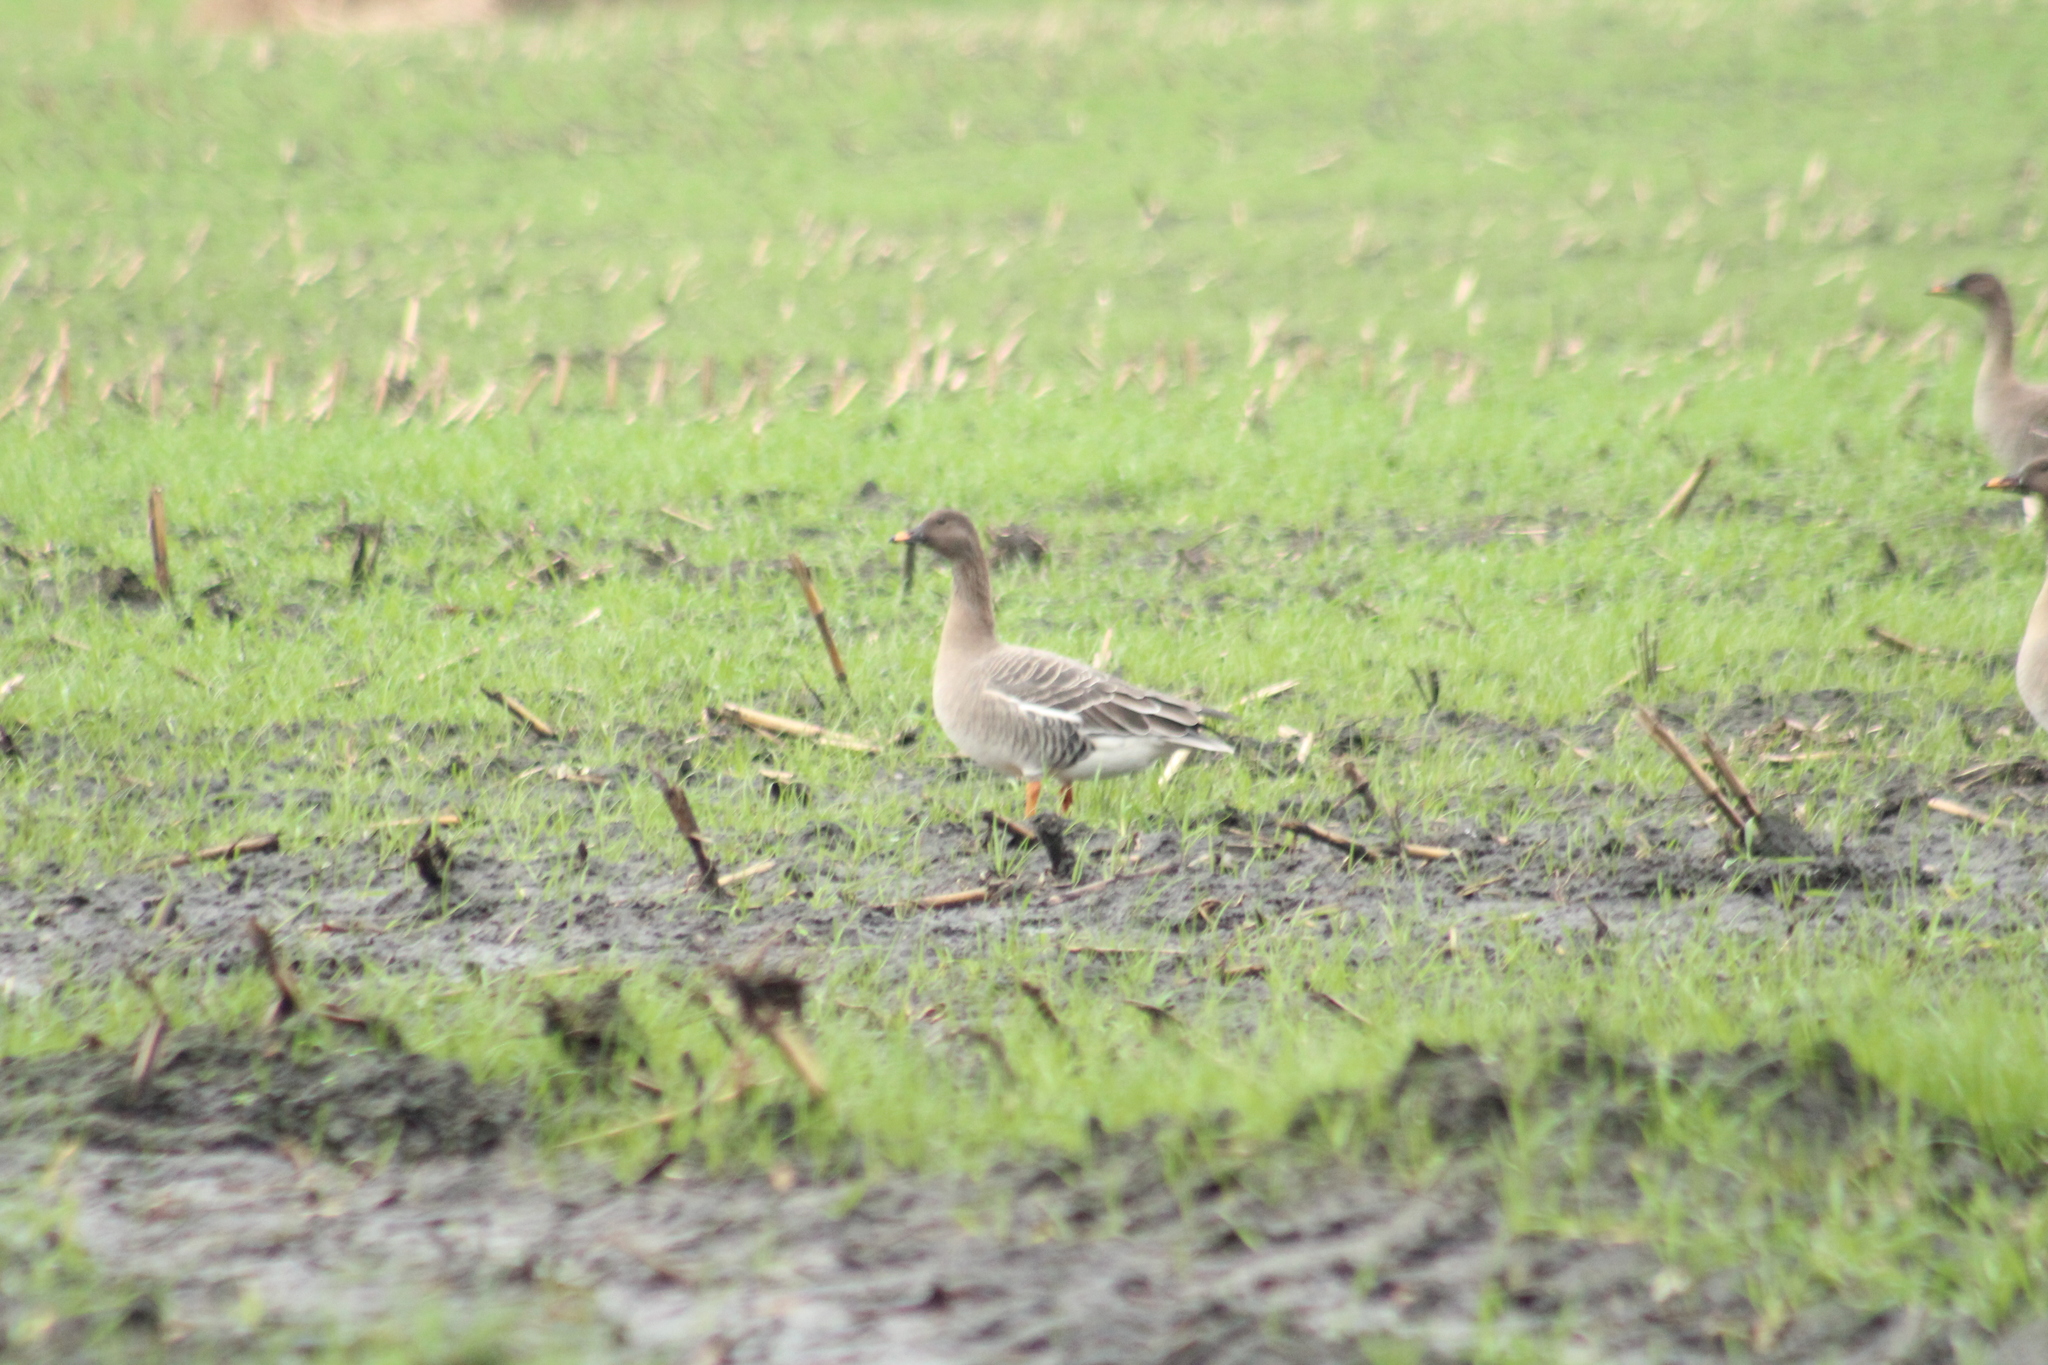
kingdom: Animalia
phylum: Chordata
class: Aves
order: Anseriformes
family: Anatidae
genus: Anser
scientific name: Anser serrirostris
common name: Tundra bean goose
